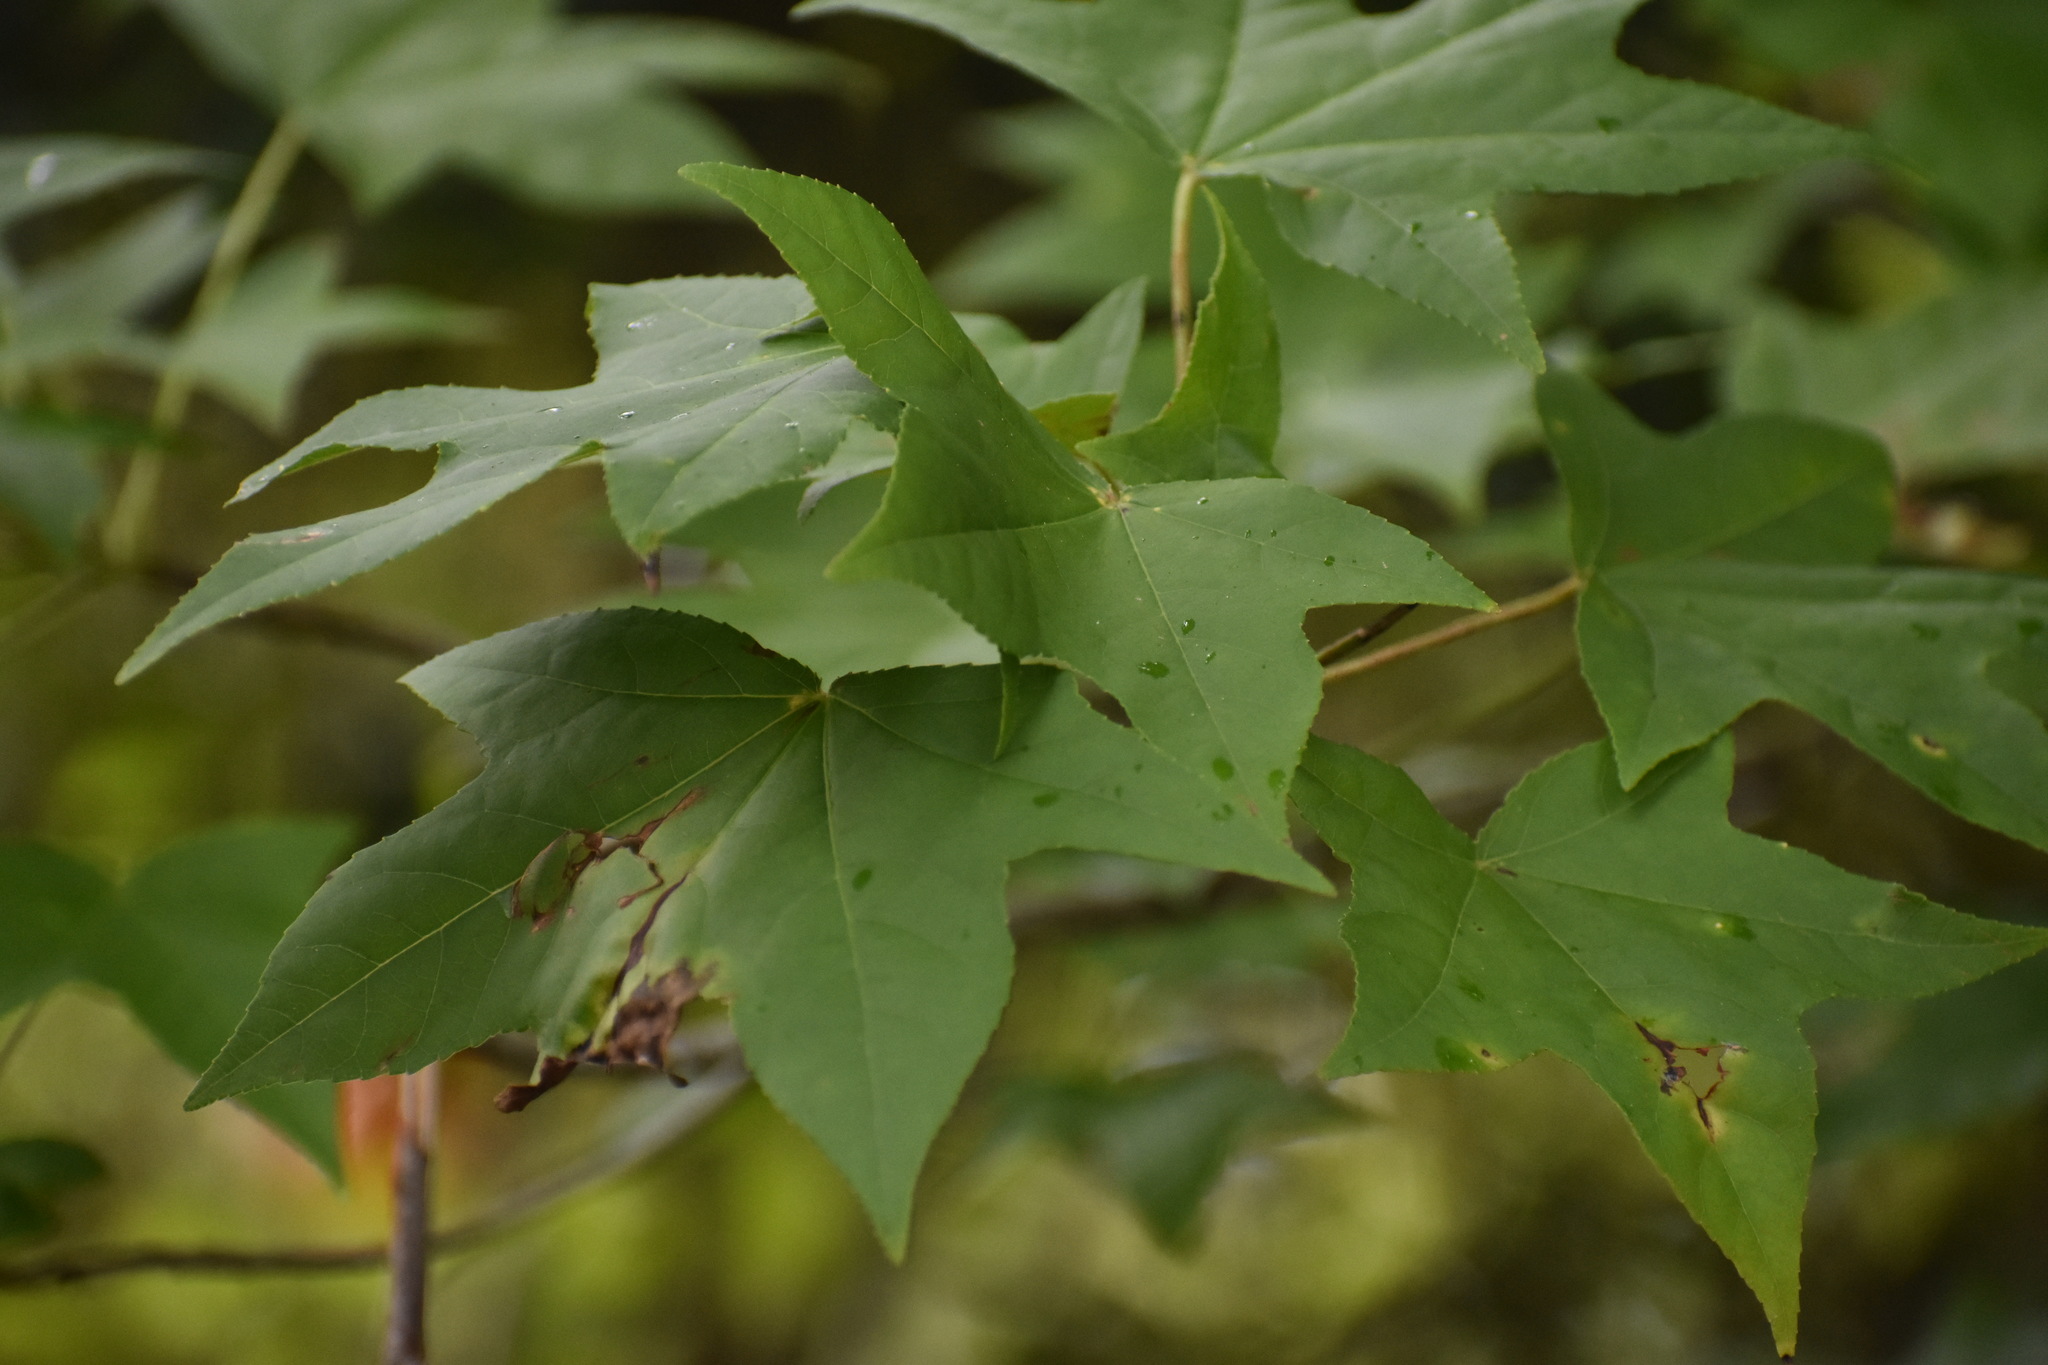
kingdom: Plantae
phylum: Tracheophyta
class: Magnoliopsida
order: Saxifragales
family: Altingiaceae
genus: Liquidambar
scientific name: Liquidambar styraciflua
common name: Sweet gum
